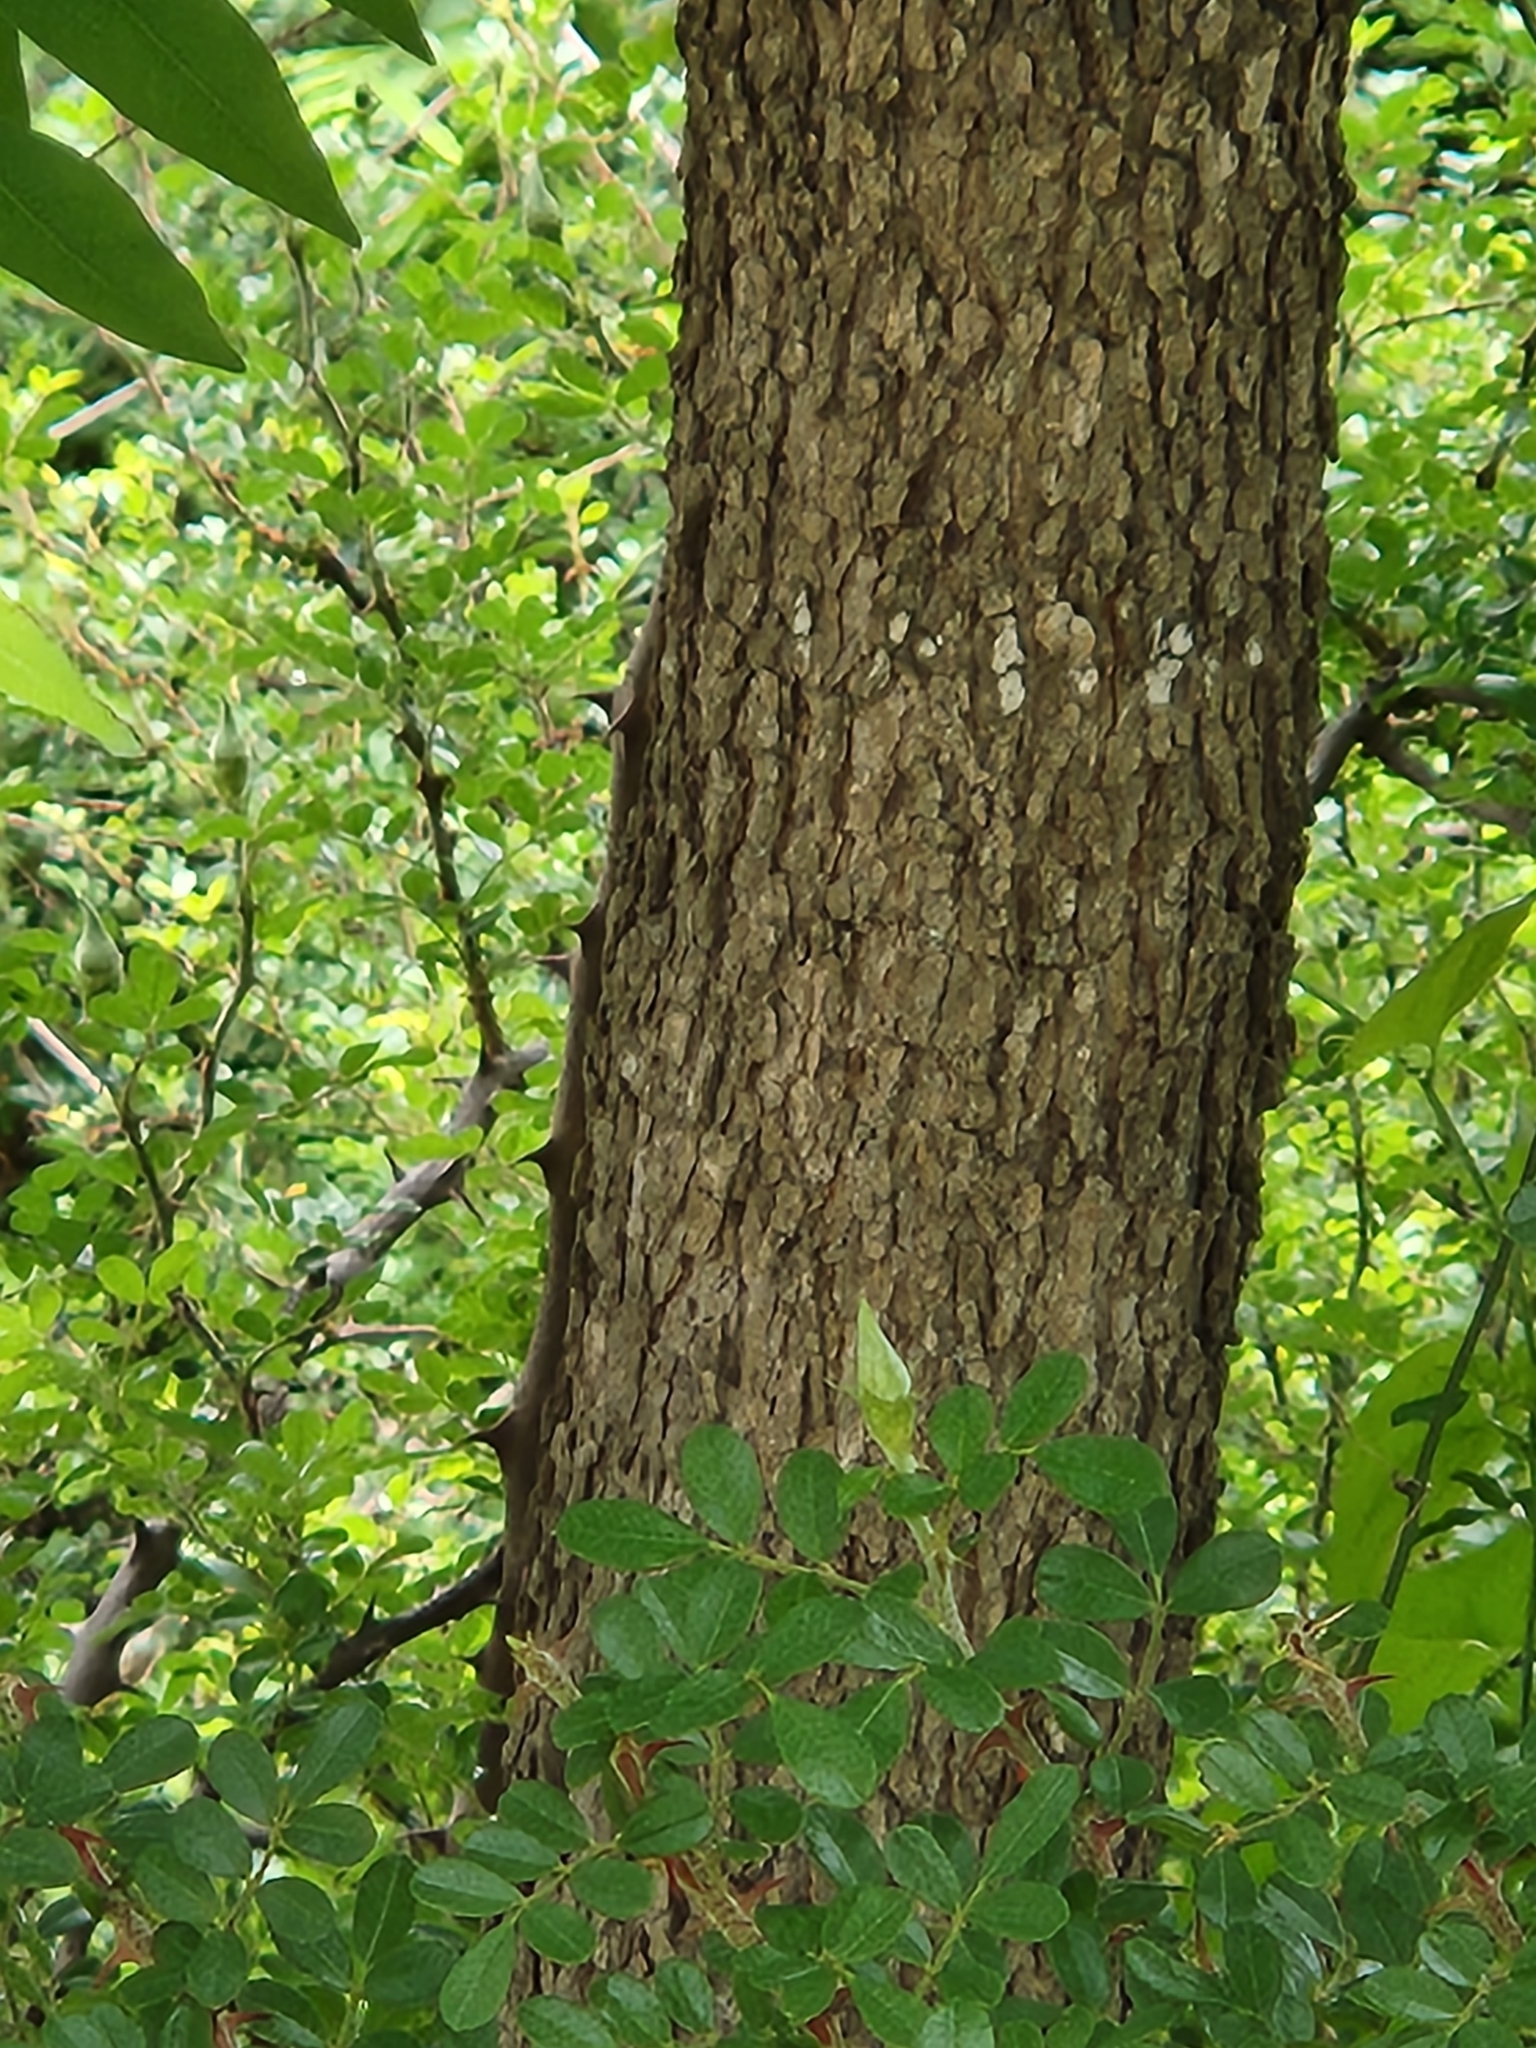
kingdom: Plantae
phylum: Tracheophyta
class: Magnoliopsida
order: Sapindales
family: Sapindaceae
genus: Sapindus
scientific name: Sapindus drummondii
